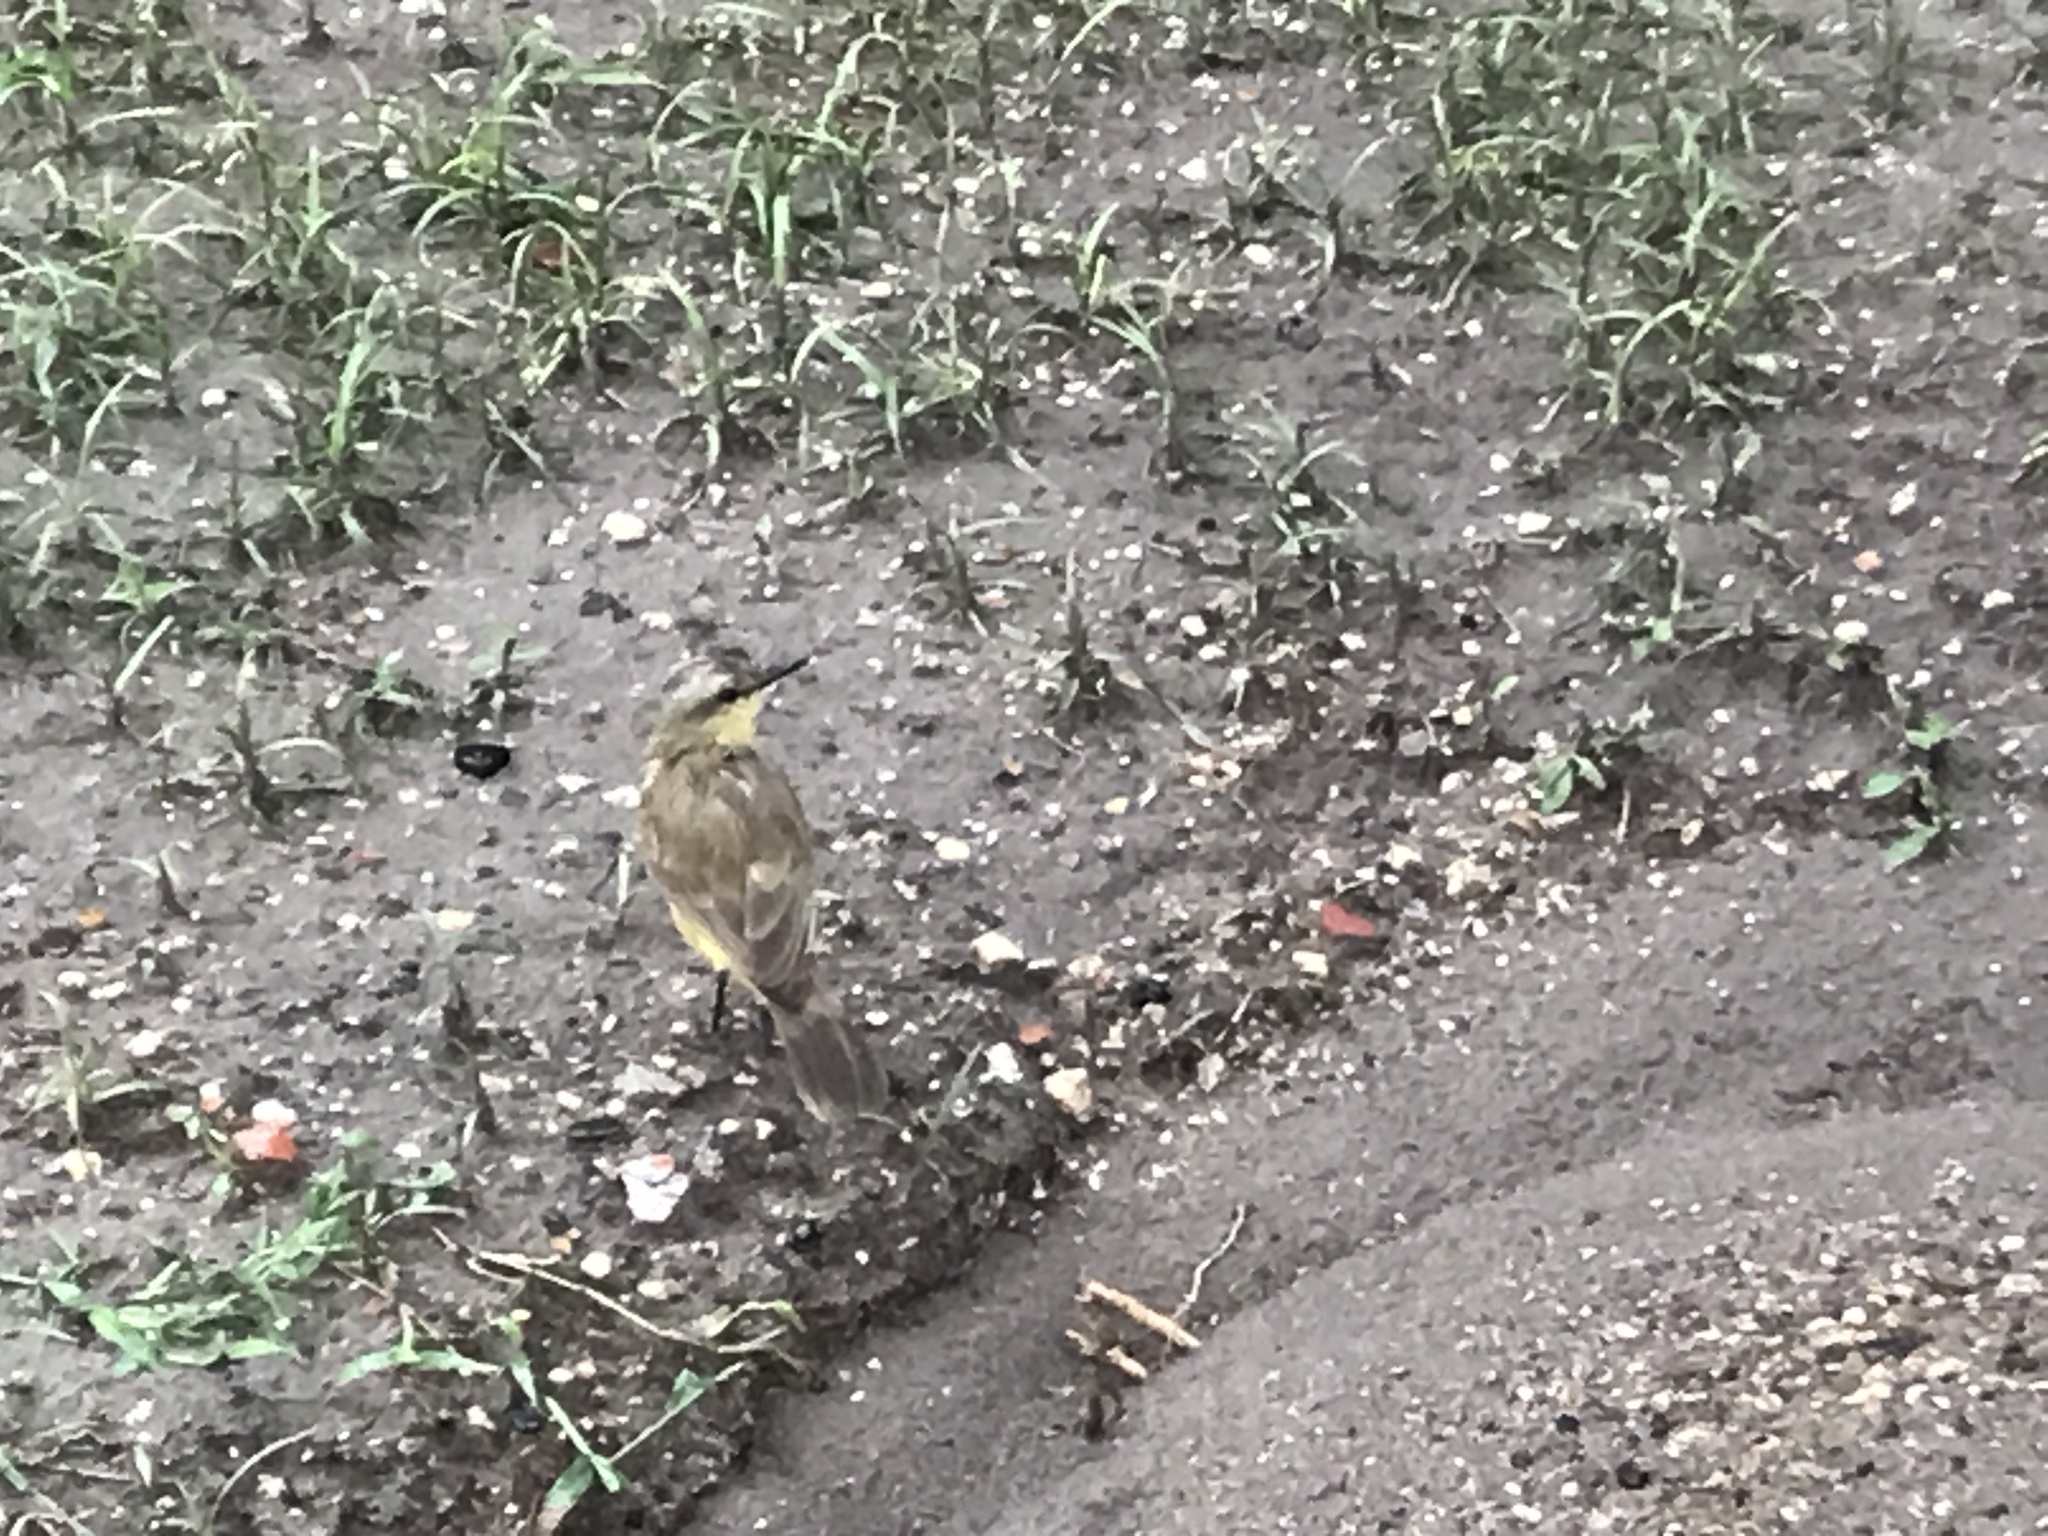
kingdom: Animalia
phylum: Chordata
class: Aves
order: Passeriformes
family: Tyrannidae
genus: Machetornis
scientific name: Machetornis rixosa
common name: Cattle tyrant
